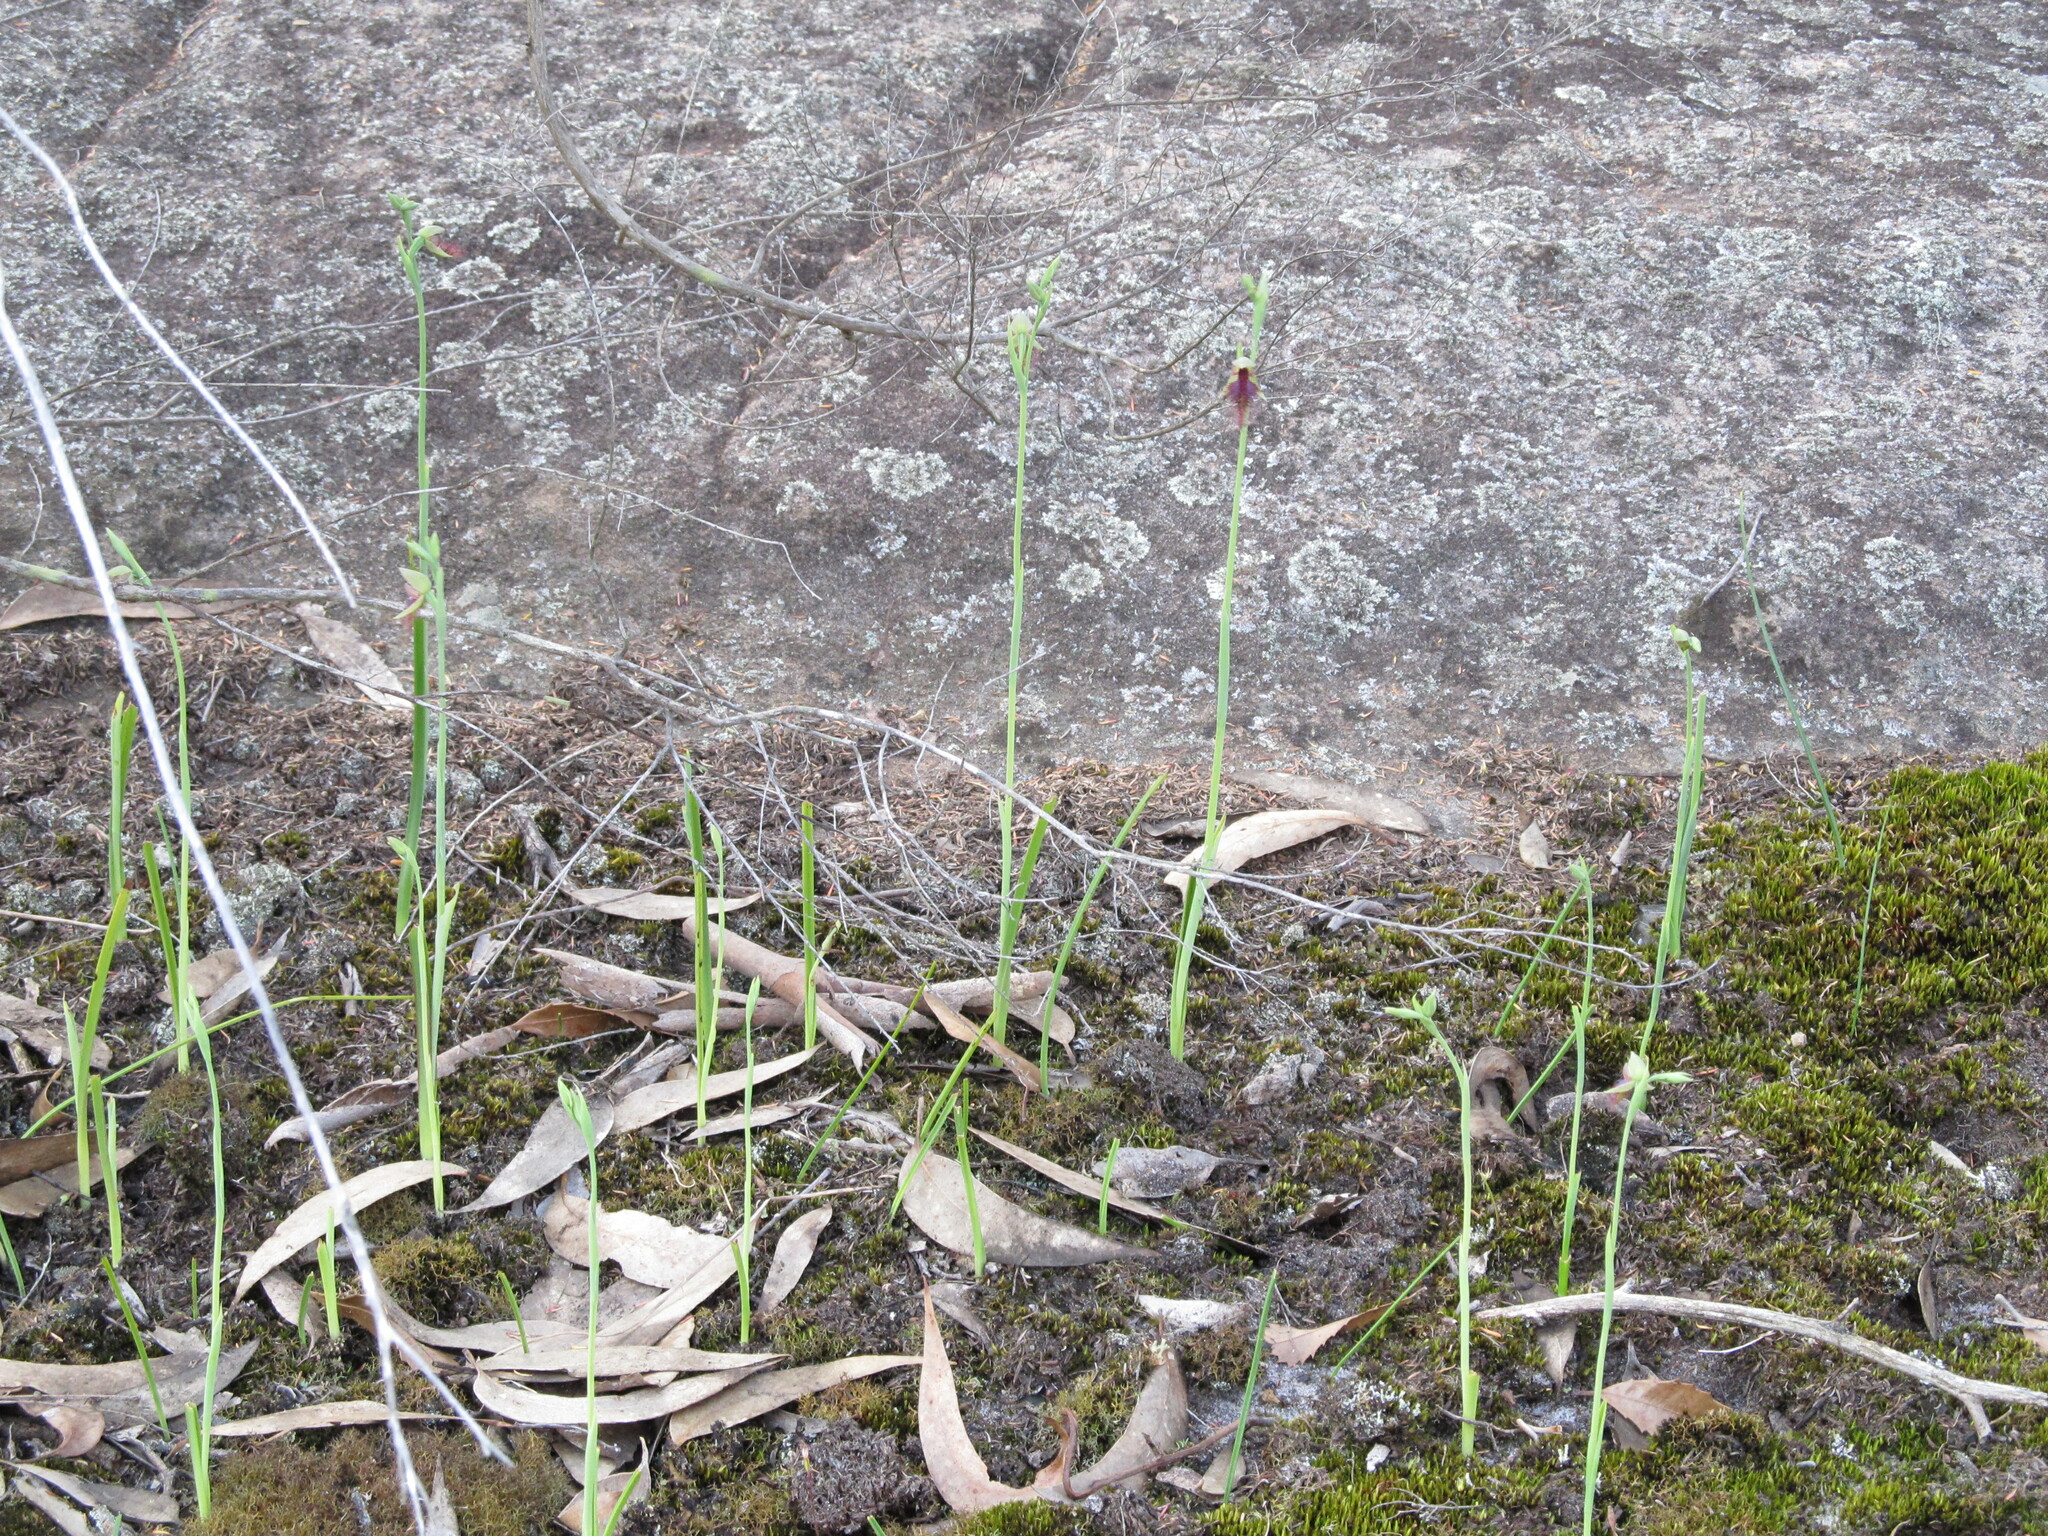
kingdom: Plantae
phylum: Tracheophyta
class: Liliopsida
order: Asparagales
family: Orchidaceae
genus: Calochilus
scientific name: Calochilus robertsonii
